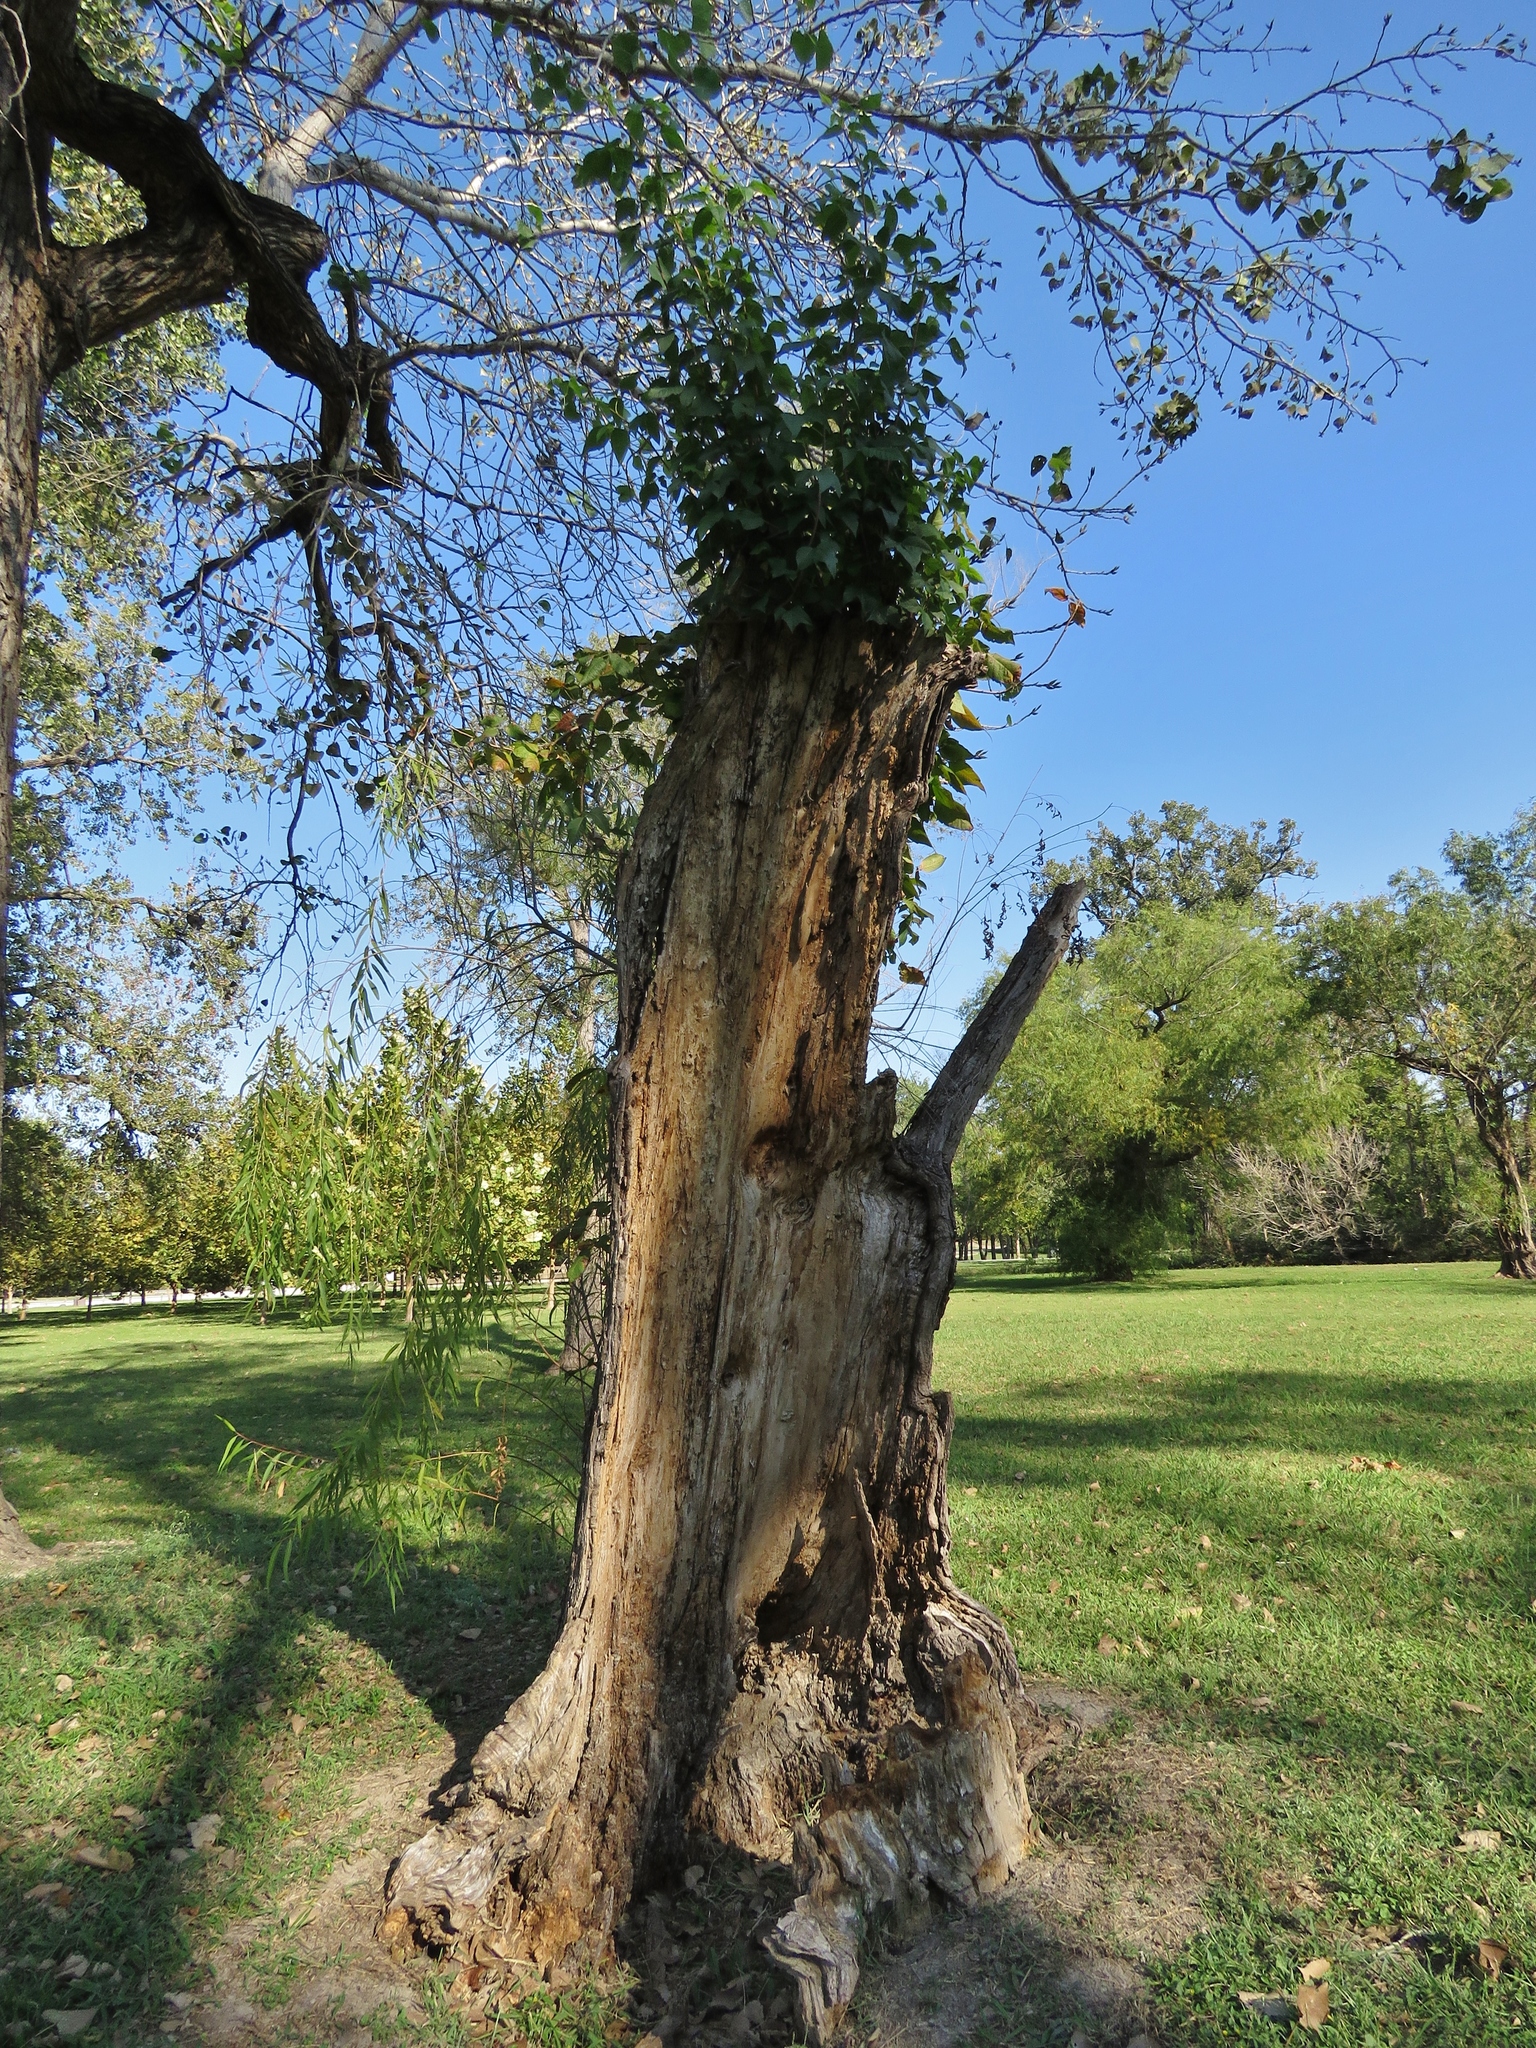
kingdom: Plantae
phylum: Tracheophyta
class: Magnoliopsida
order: Malpighiales
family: Salicaceae
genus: Salix
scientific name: Salix nigra
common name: Black willow
